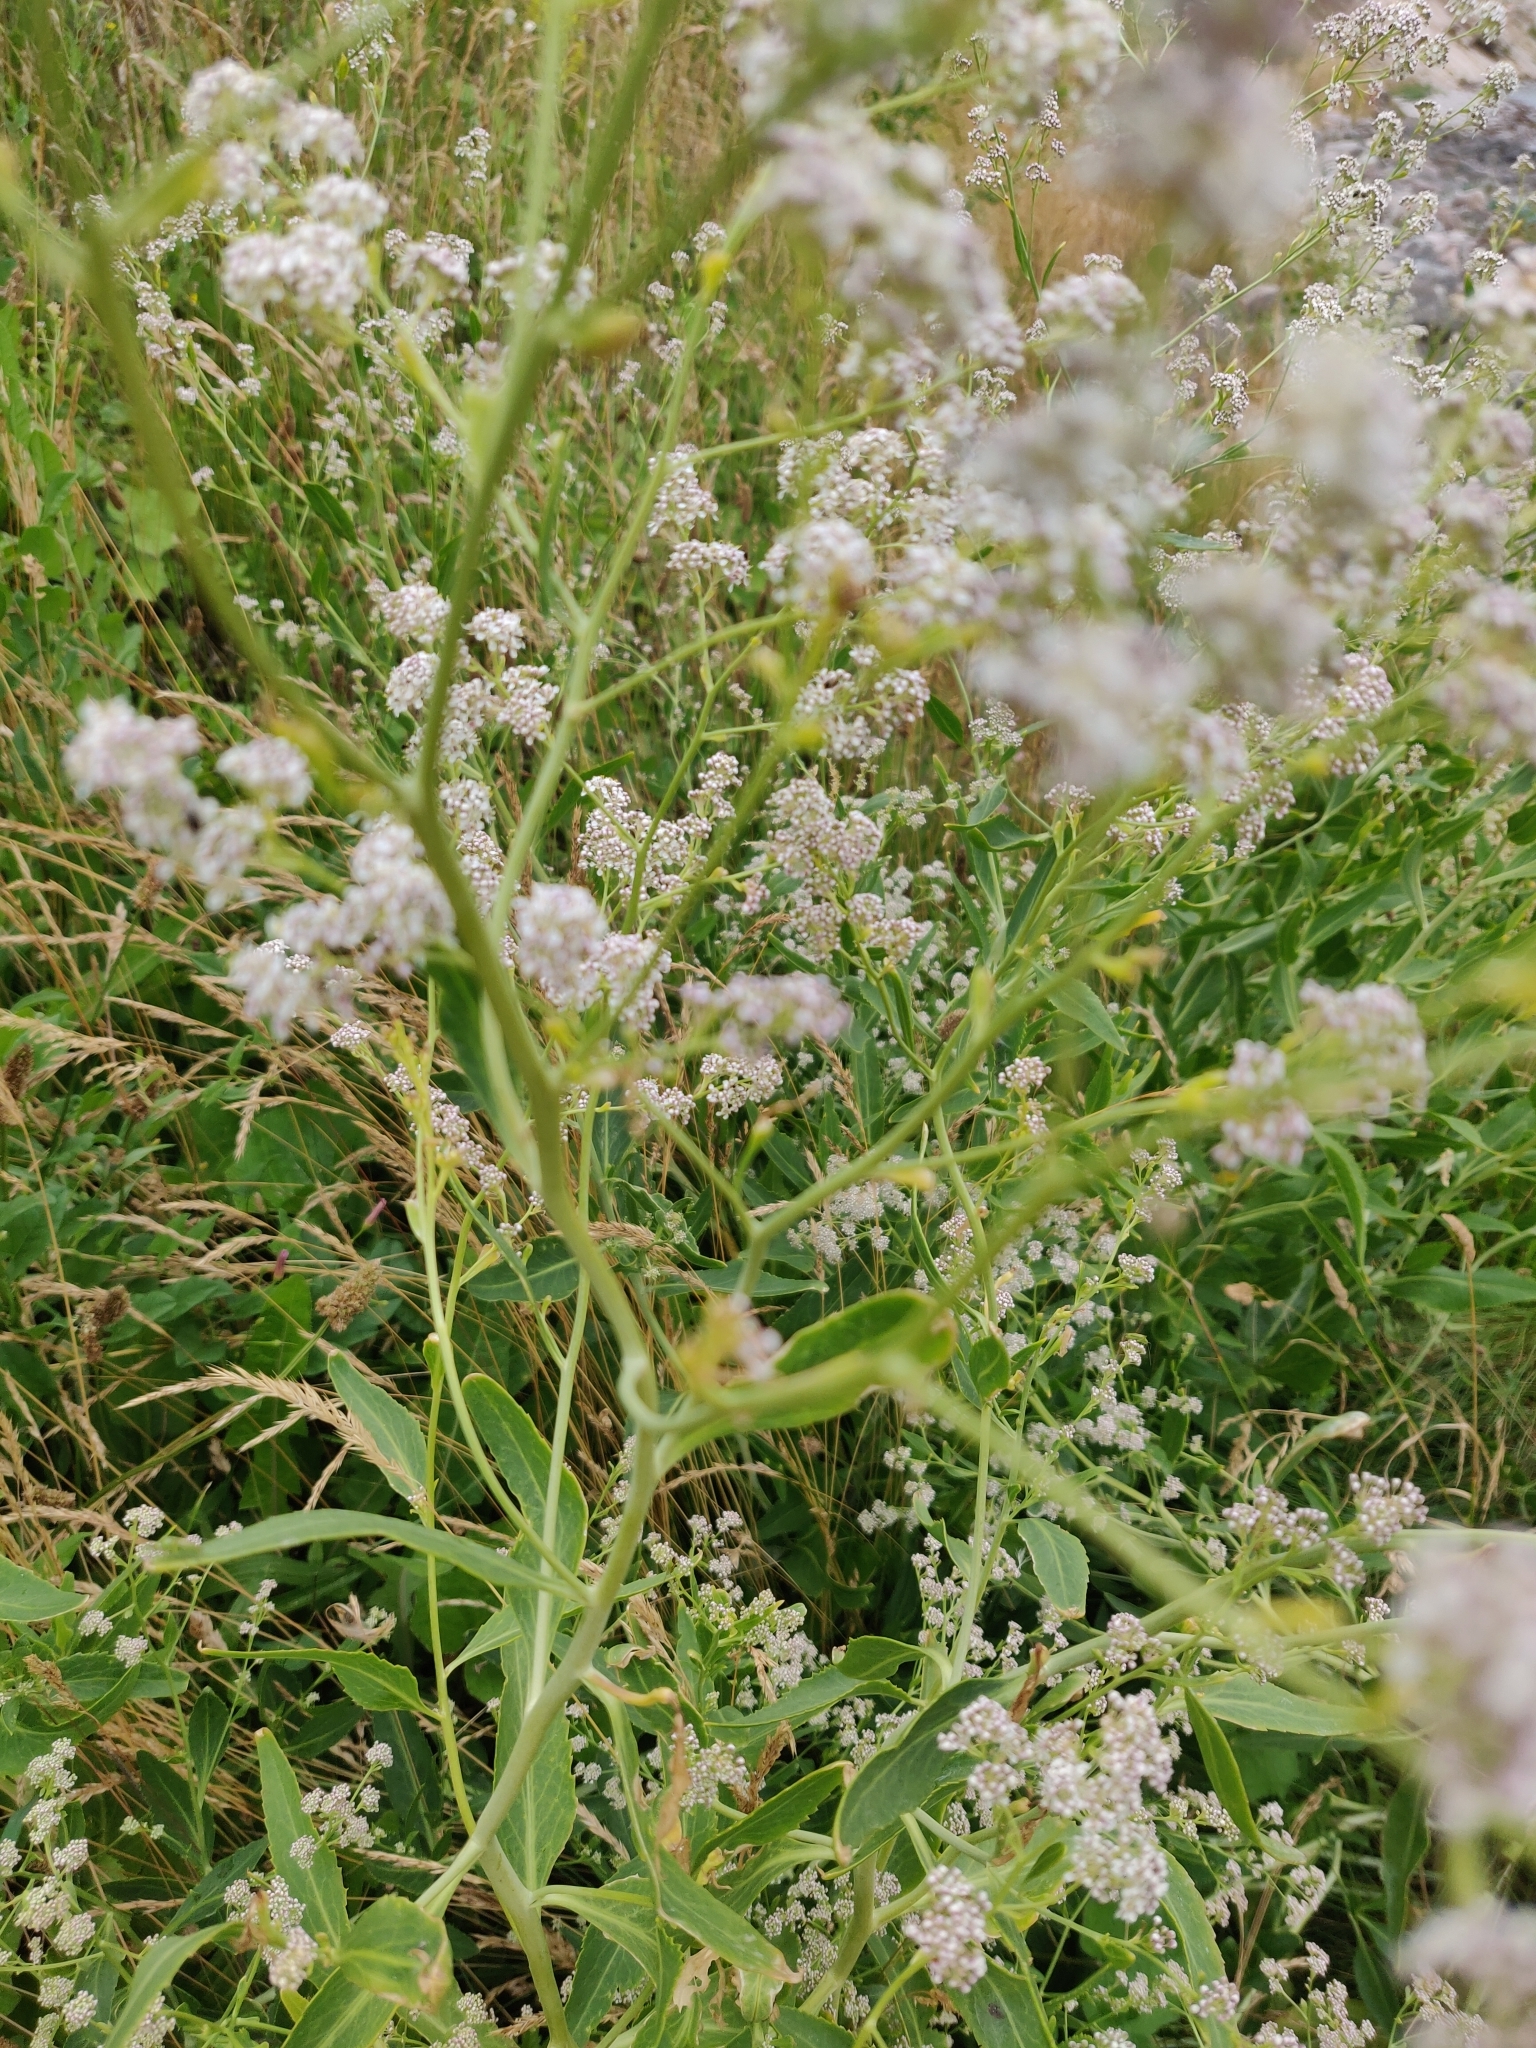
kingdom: Plantae
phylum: Tracheophyta
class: Magnoliopsida
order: Brassicales
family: Brassicaceae
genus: Lepidium
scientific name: Lepidium latifolium
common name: Dittander
